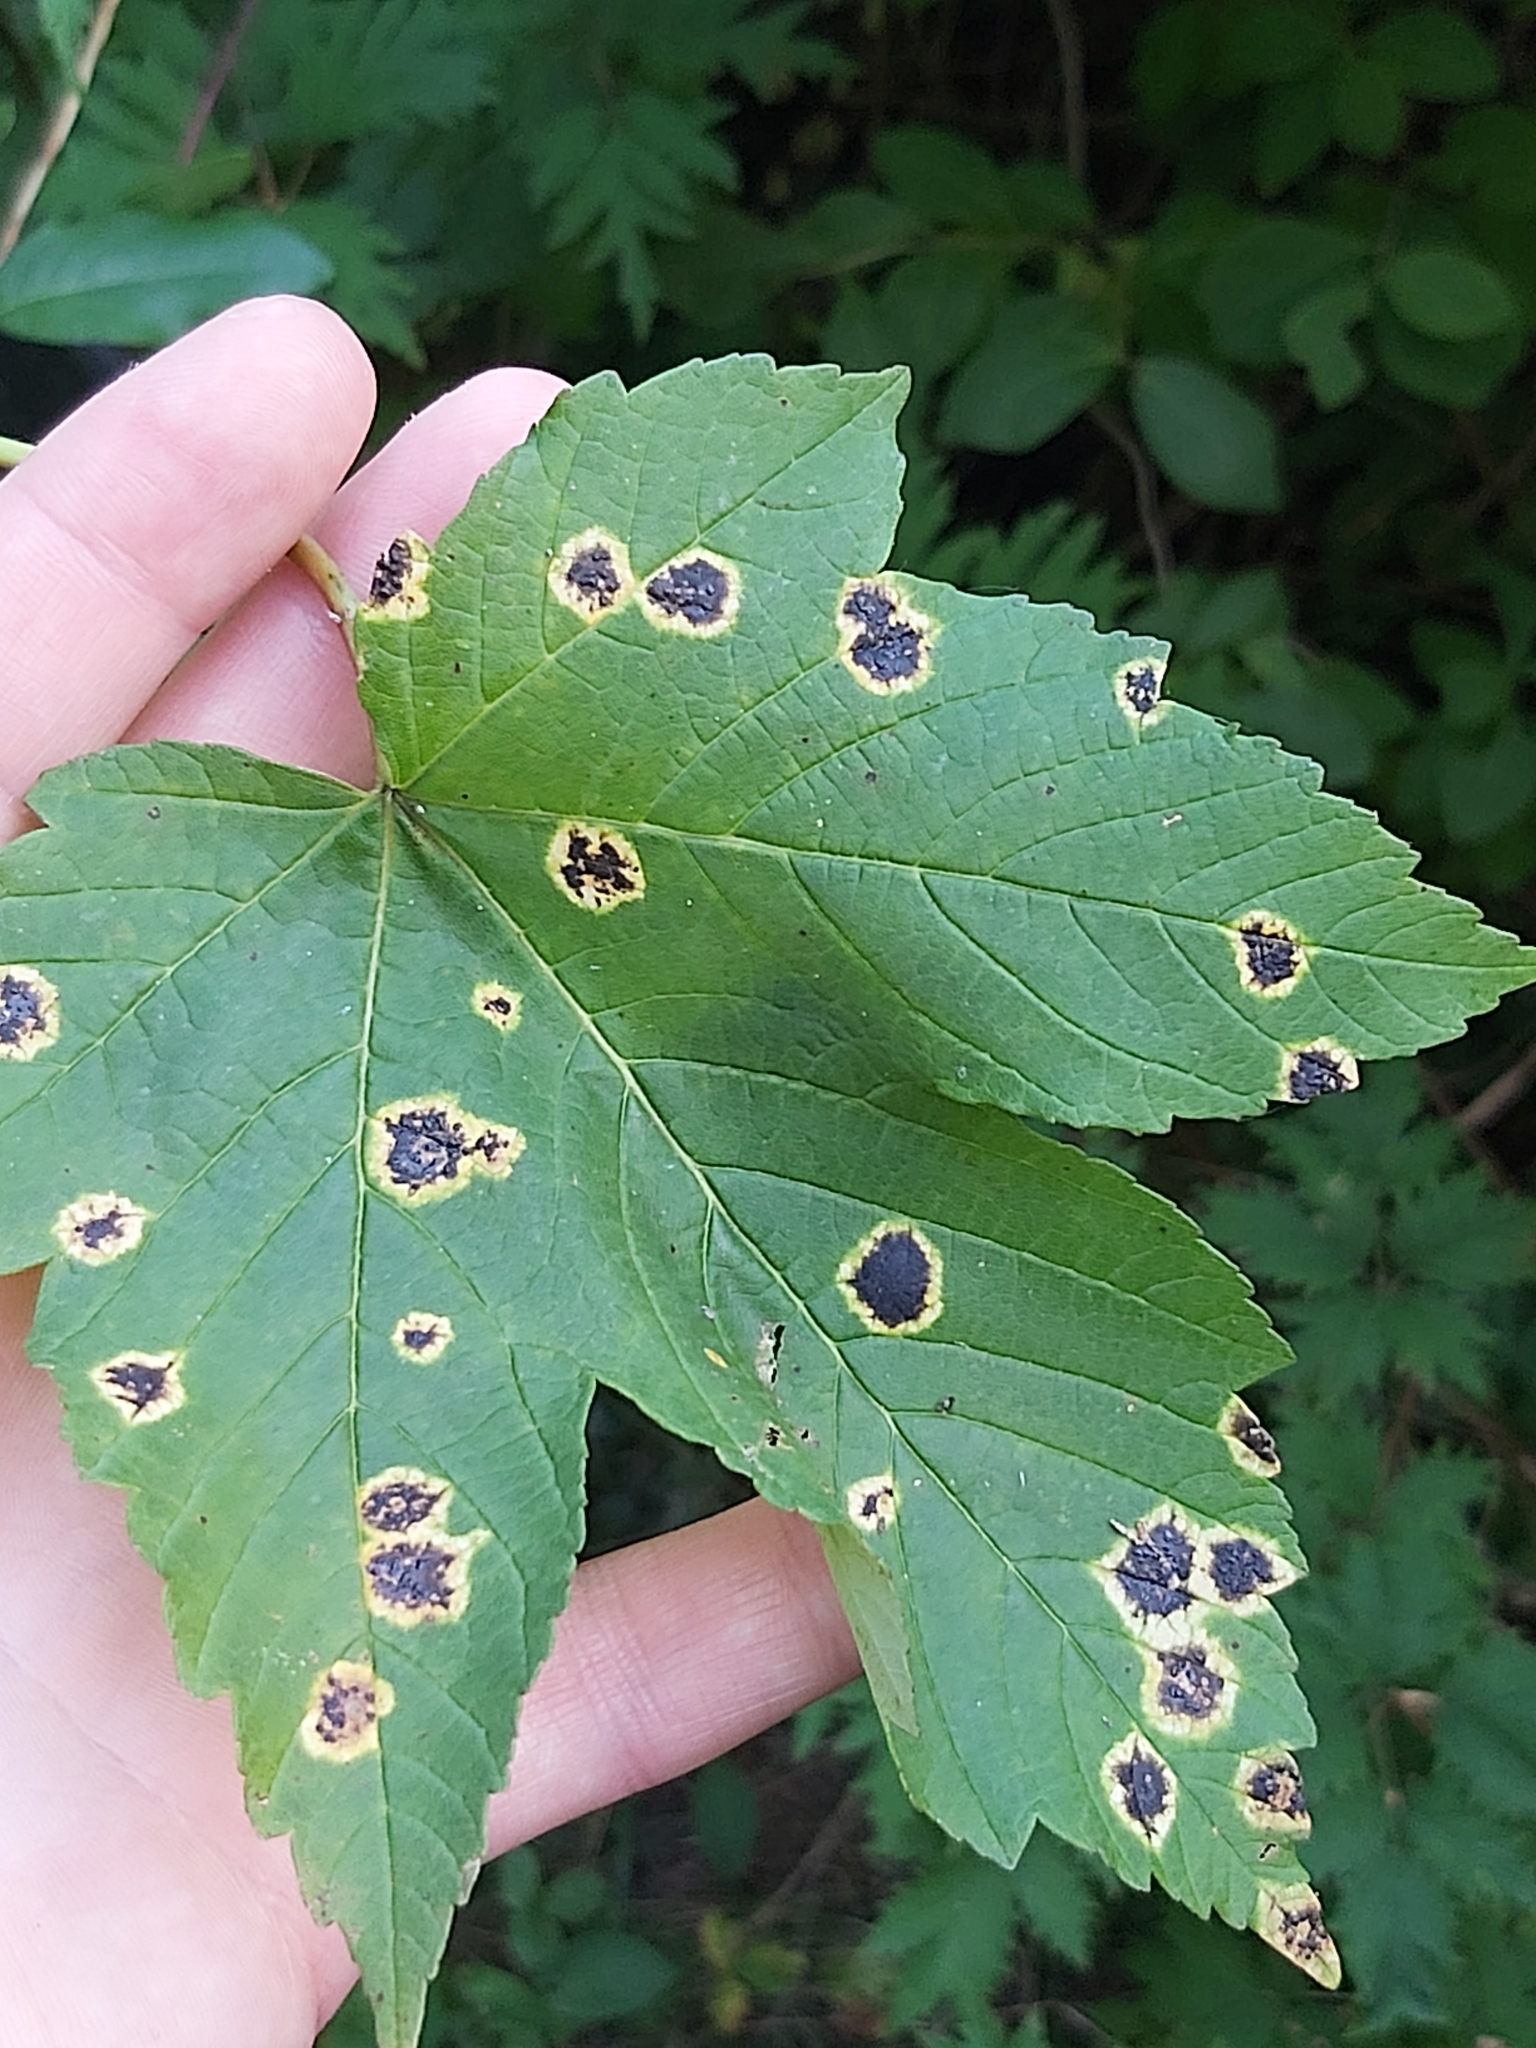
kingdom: Fungi
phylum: Ascomycota
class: Leotiomycetes
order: Rhytismatales
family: Rhytismataceae
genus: Rhytisma
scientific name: Rhytisma acerinum
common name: European tar spot
